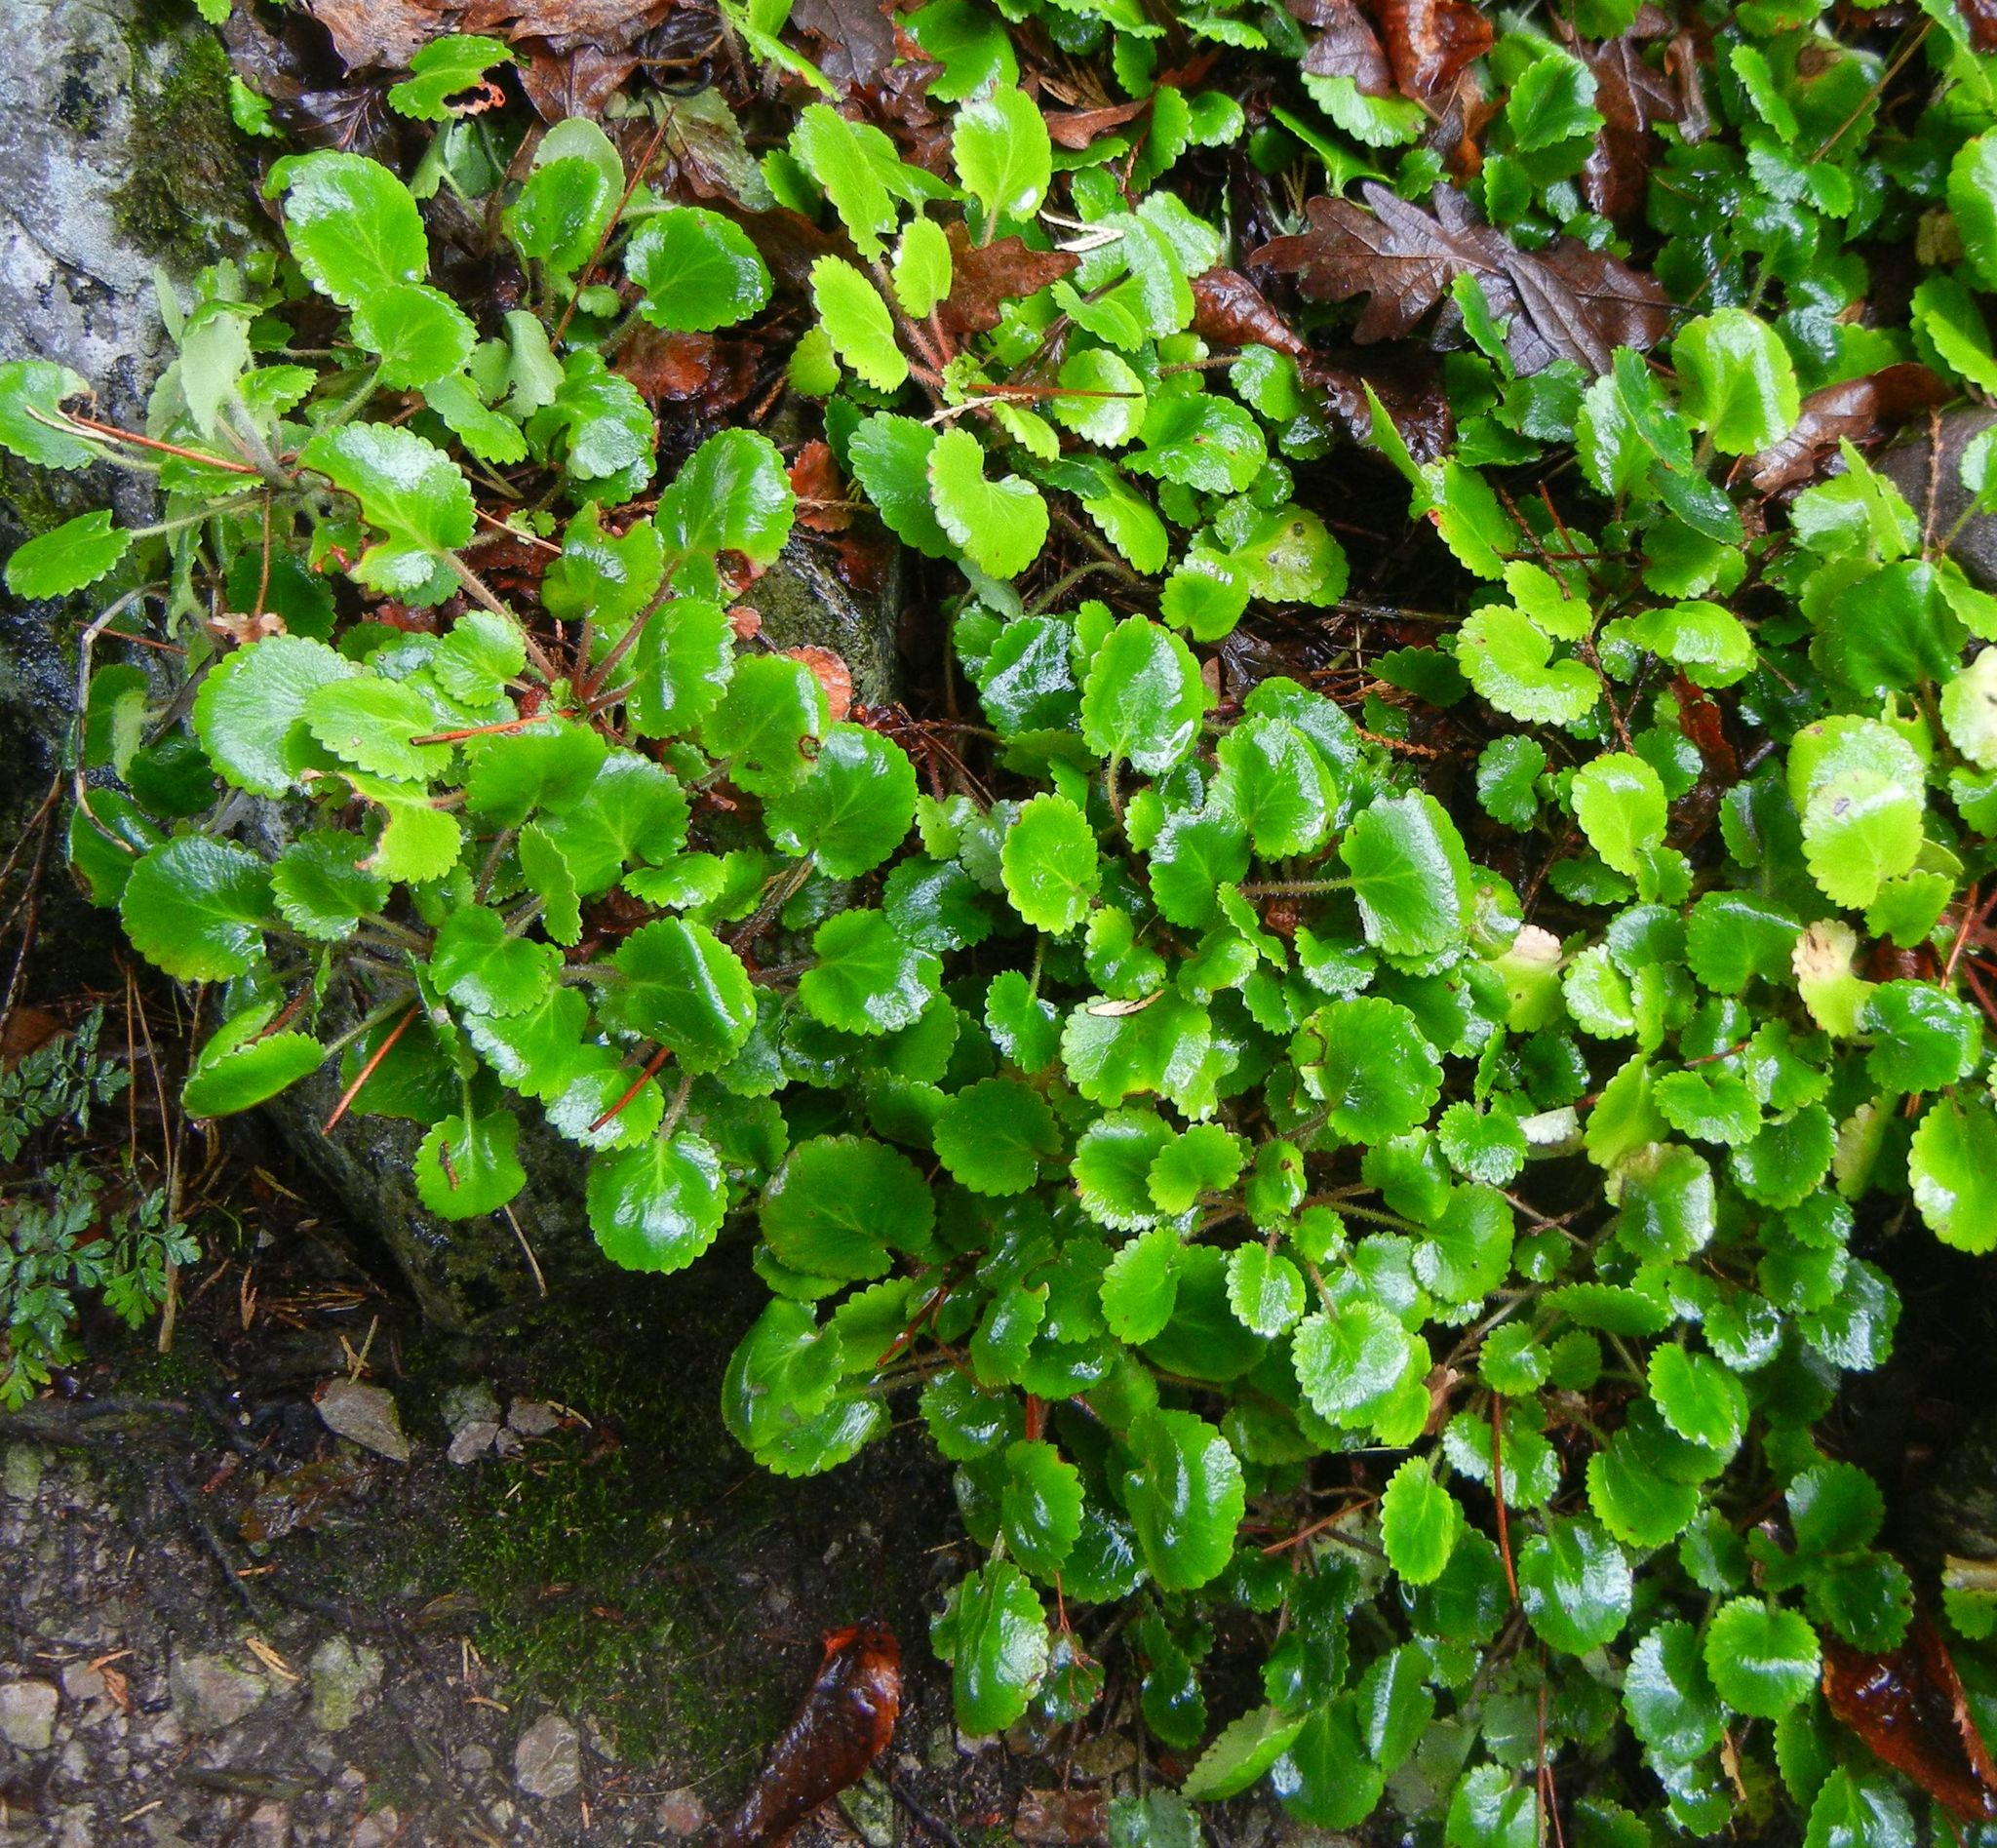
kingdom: Plantae
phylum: Tracheophyta
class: Magnoliopsida
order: Saxifragales
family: Saxifragaceae
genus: Saxifraga
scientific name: Saxifraga hirsuta
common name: Kidney saxifrage
